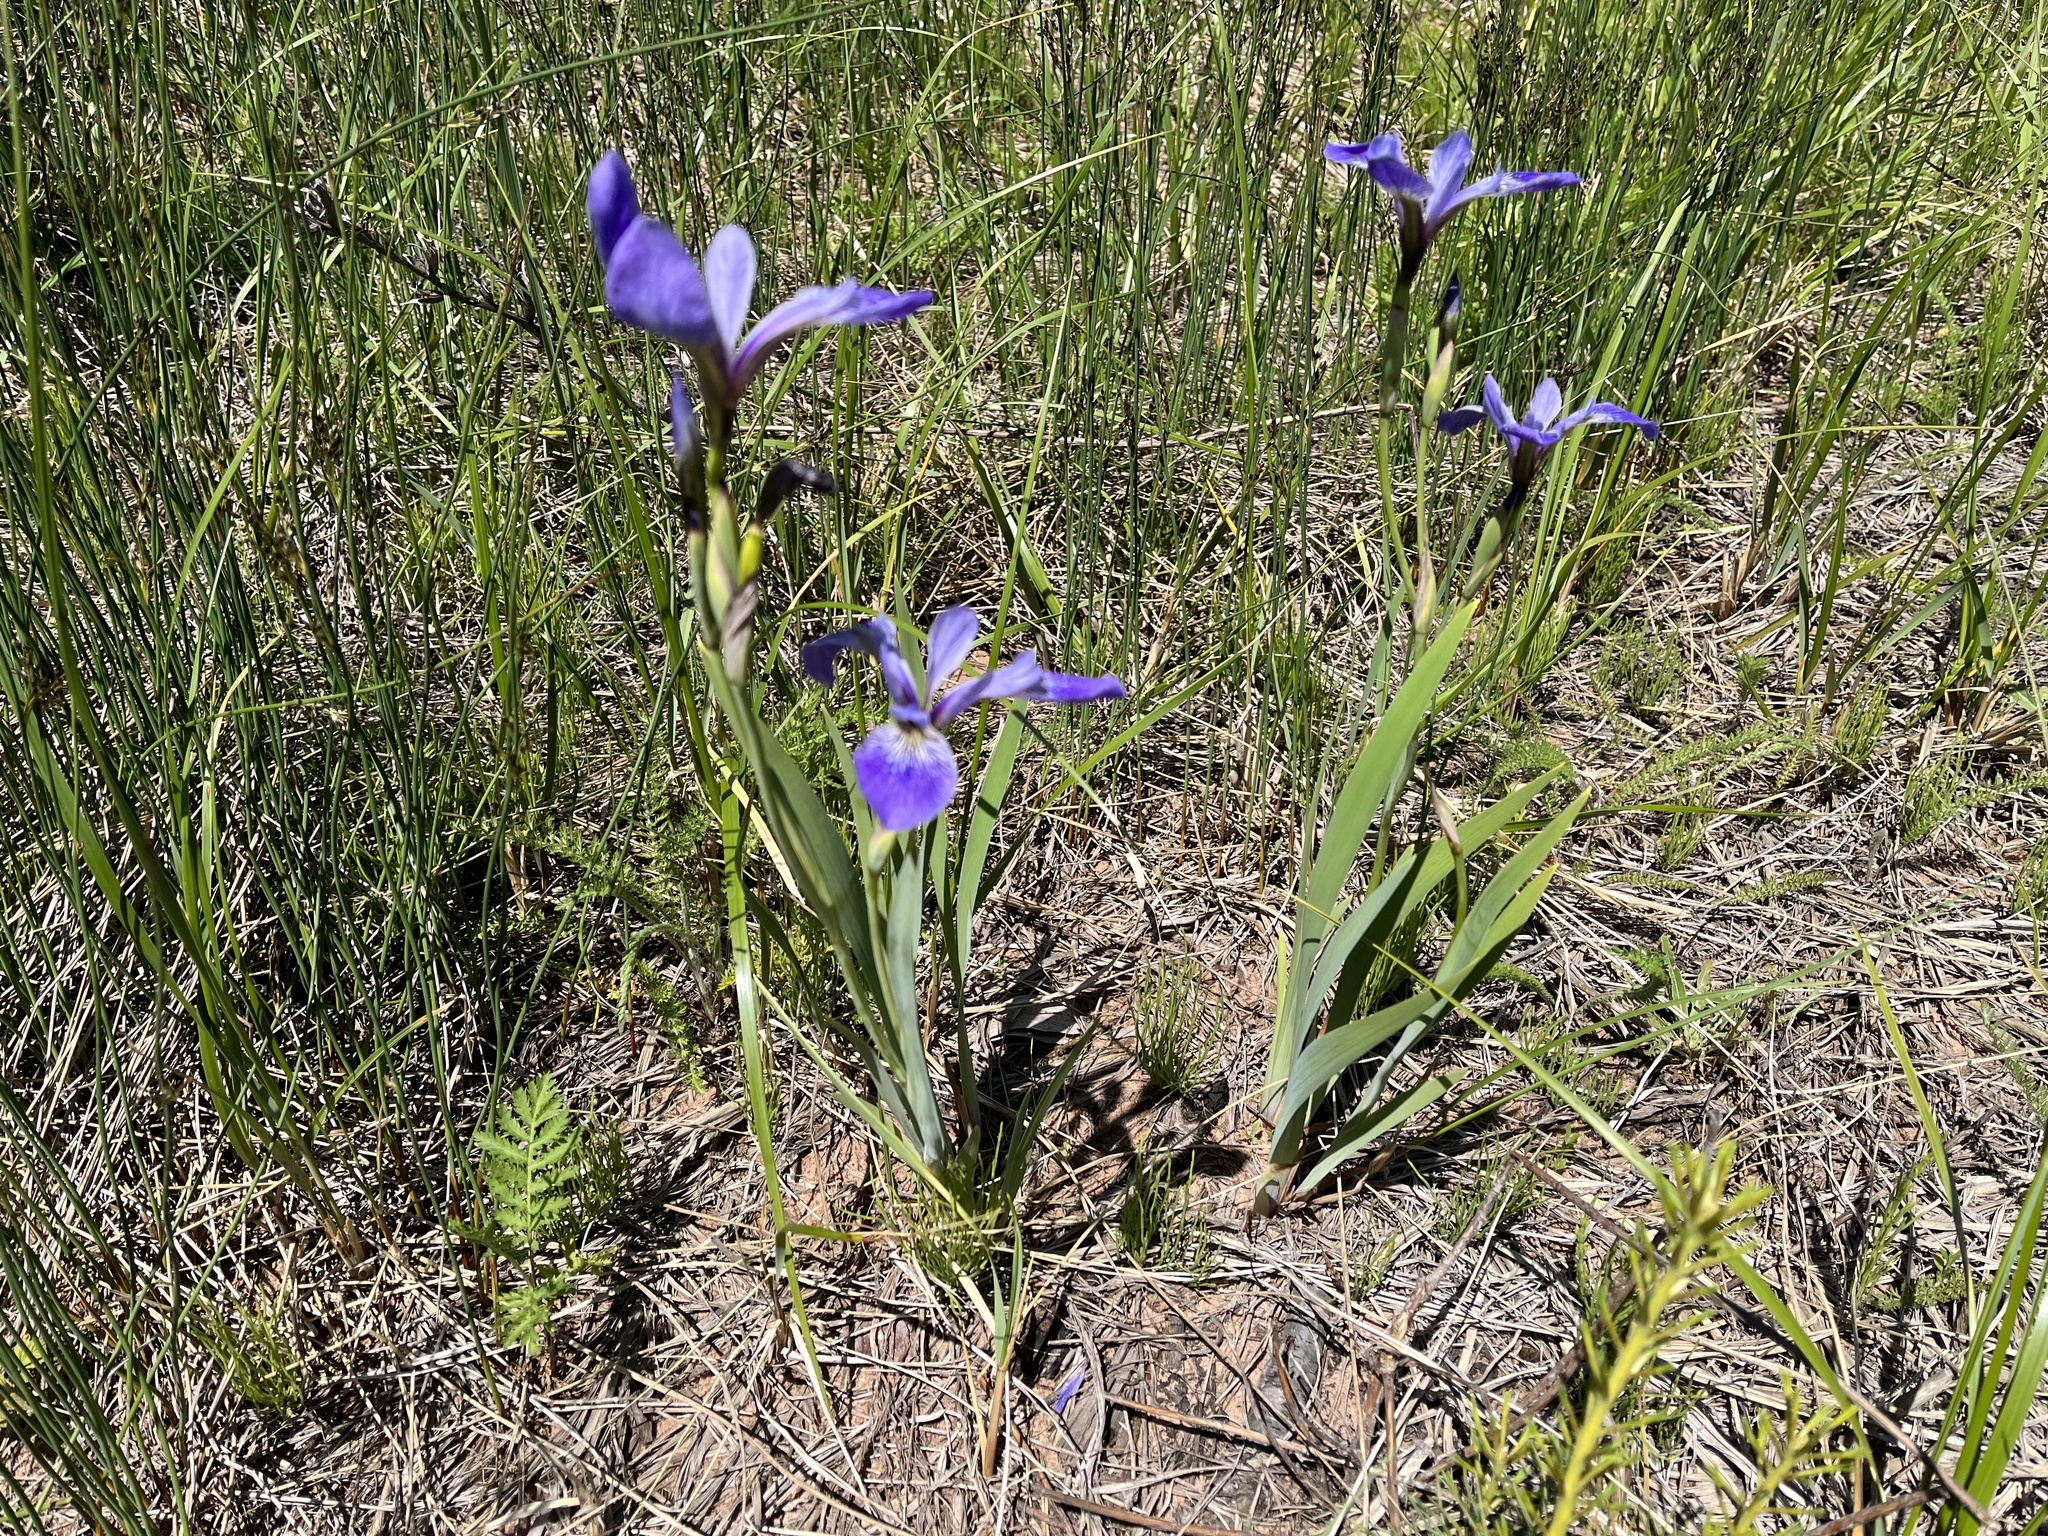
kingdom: Plantae
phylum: Tracheophyta
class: Liliopsida
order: Asparagales
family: Iridaceae
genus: Iris
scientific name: Iris versicolor
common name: Purple iris
